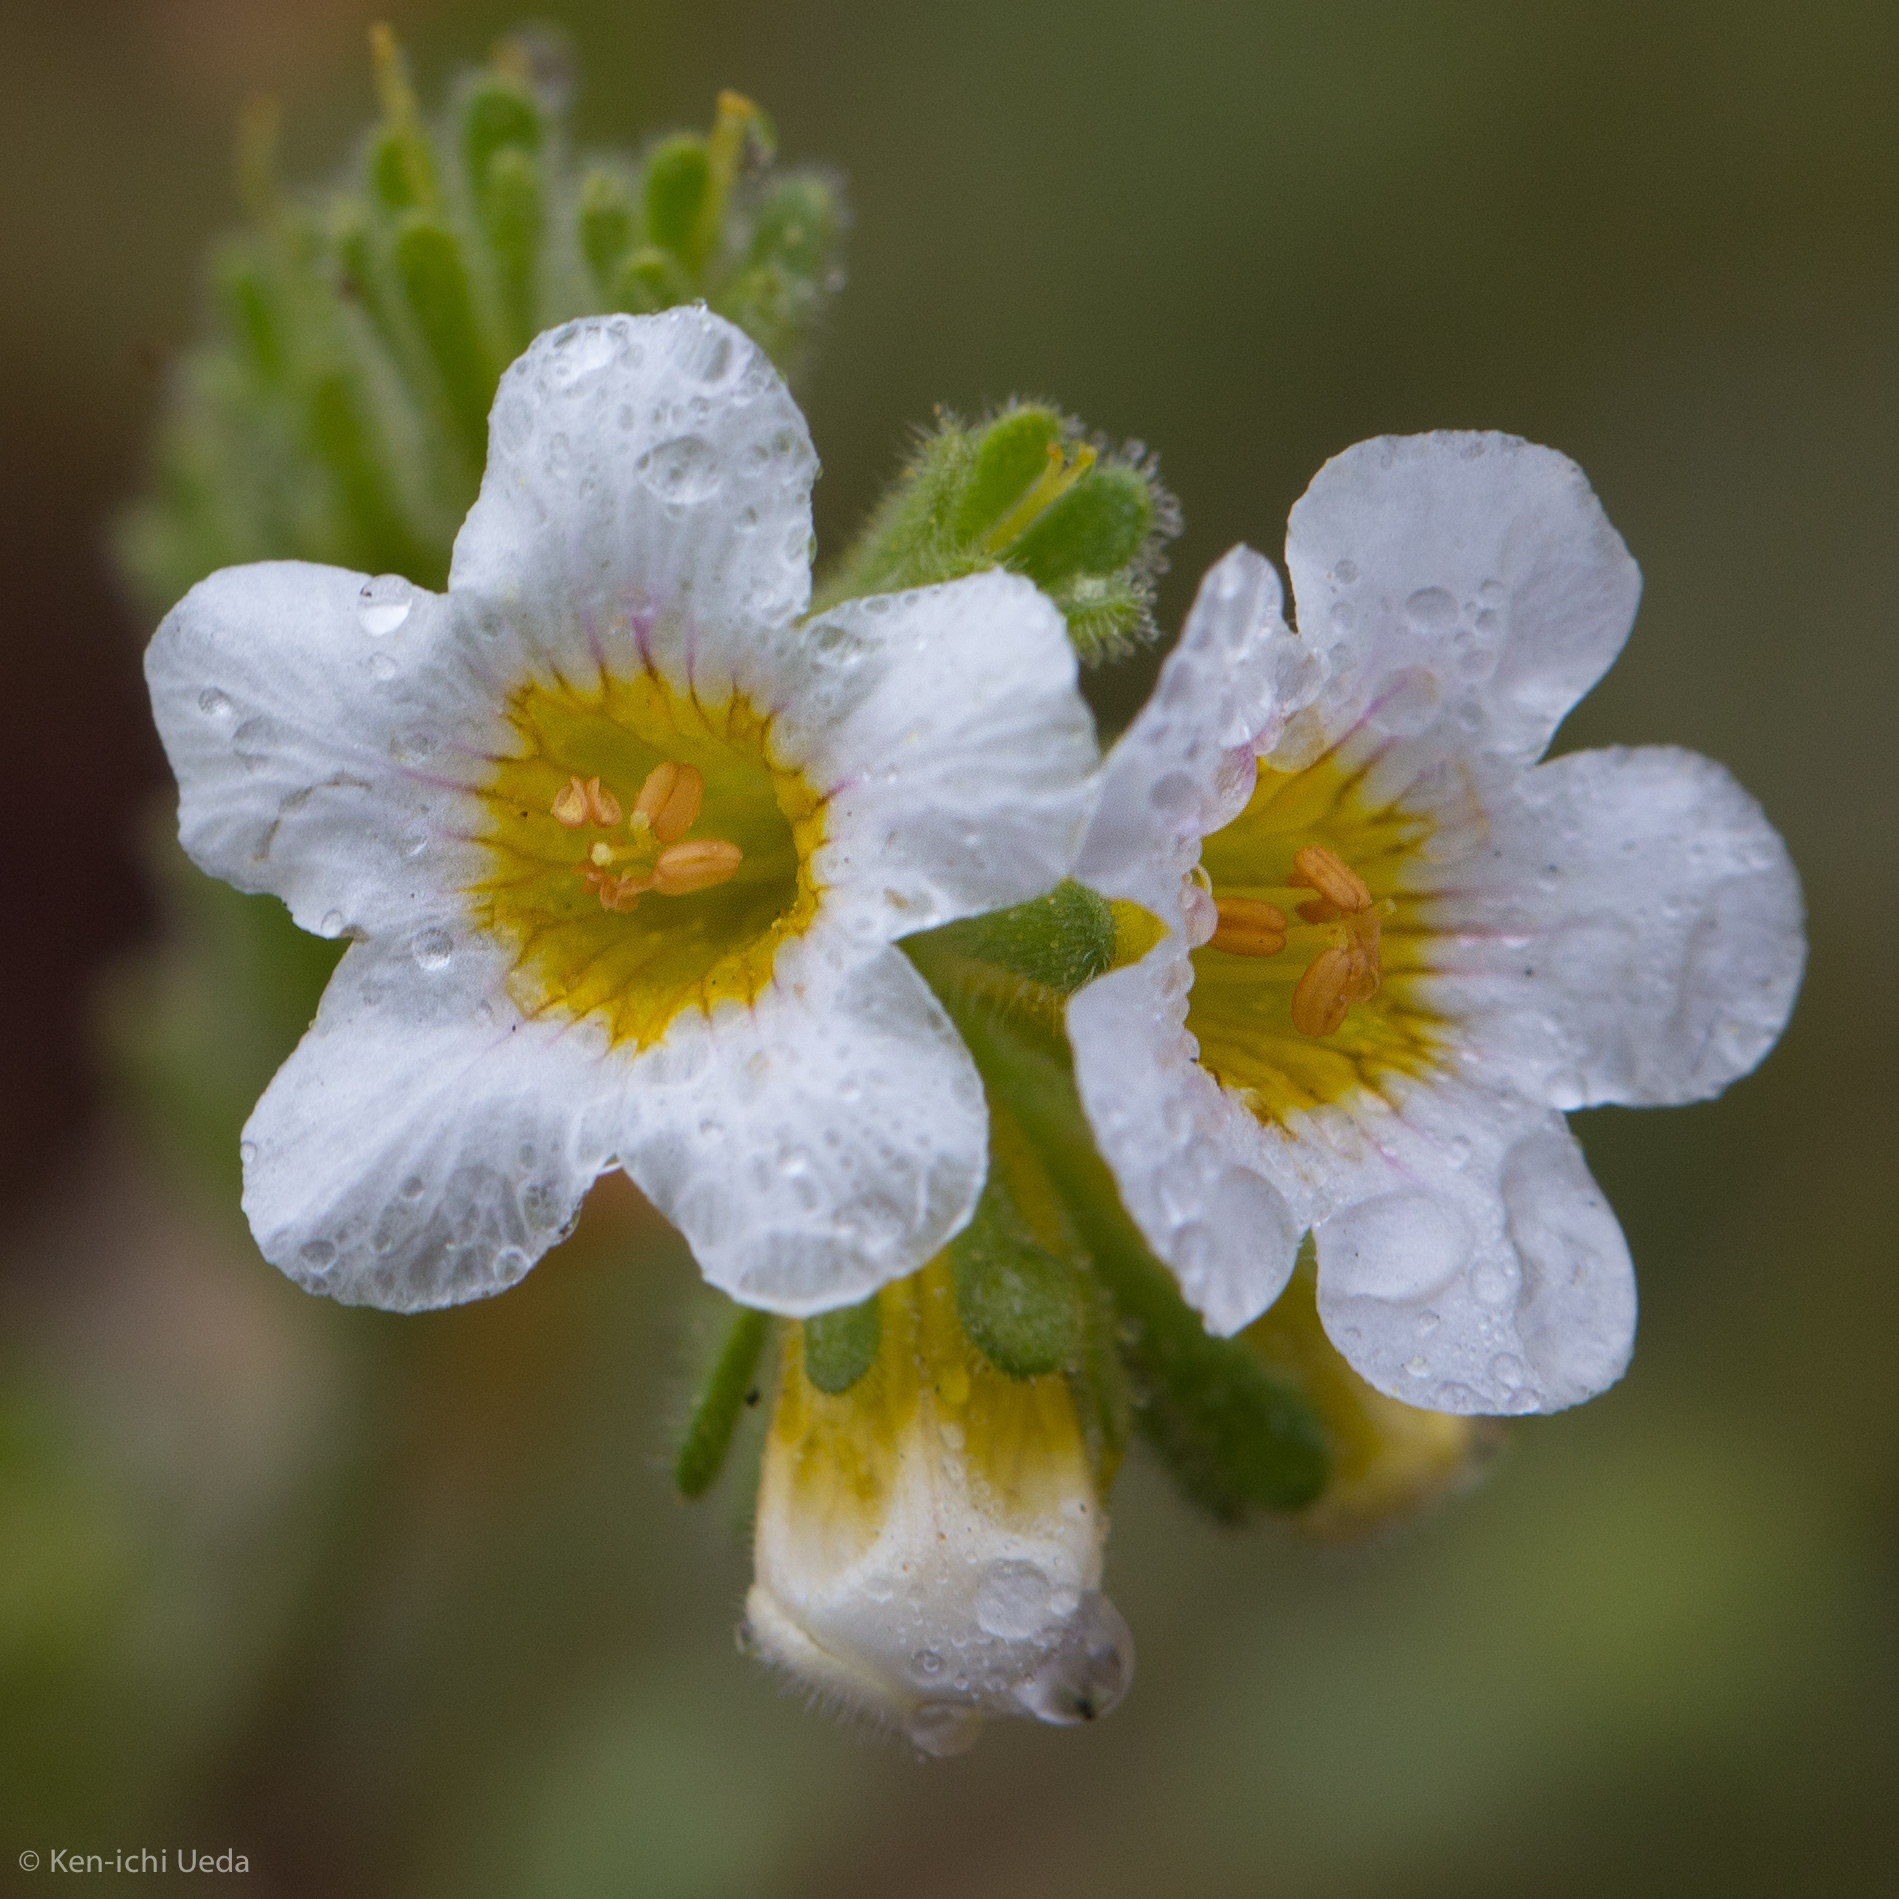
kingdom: Plantae
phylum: Tracheophyta
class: Magnoliopsida
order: Boraginales
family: Hydrophyllaceae
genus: Phacelia
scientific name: Phacelia brachyloba
